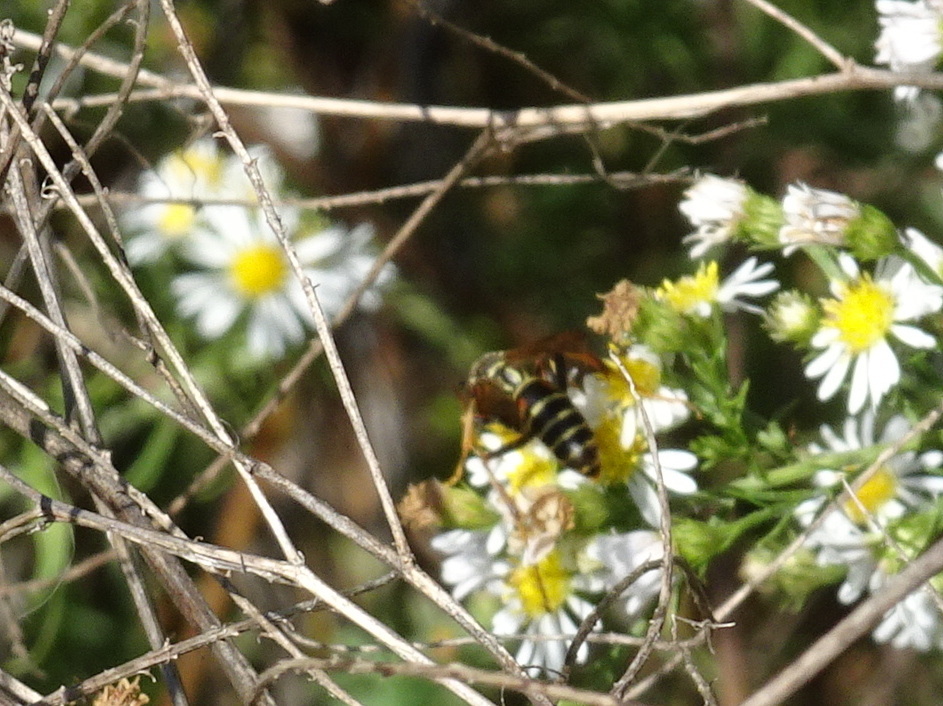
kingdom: Animalia
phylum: Arthropoda
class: Insecta
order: Hymenoptera
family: Eumenidae
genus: Polistes
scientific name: Polistes fuscatus
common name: Dark paper wasp
